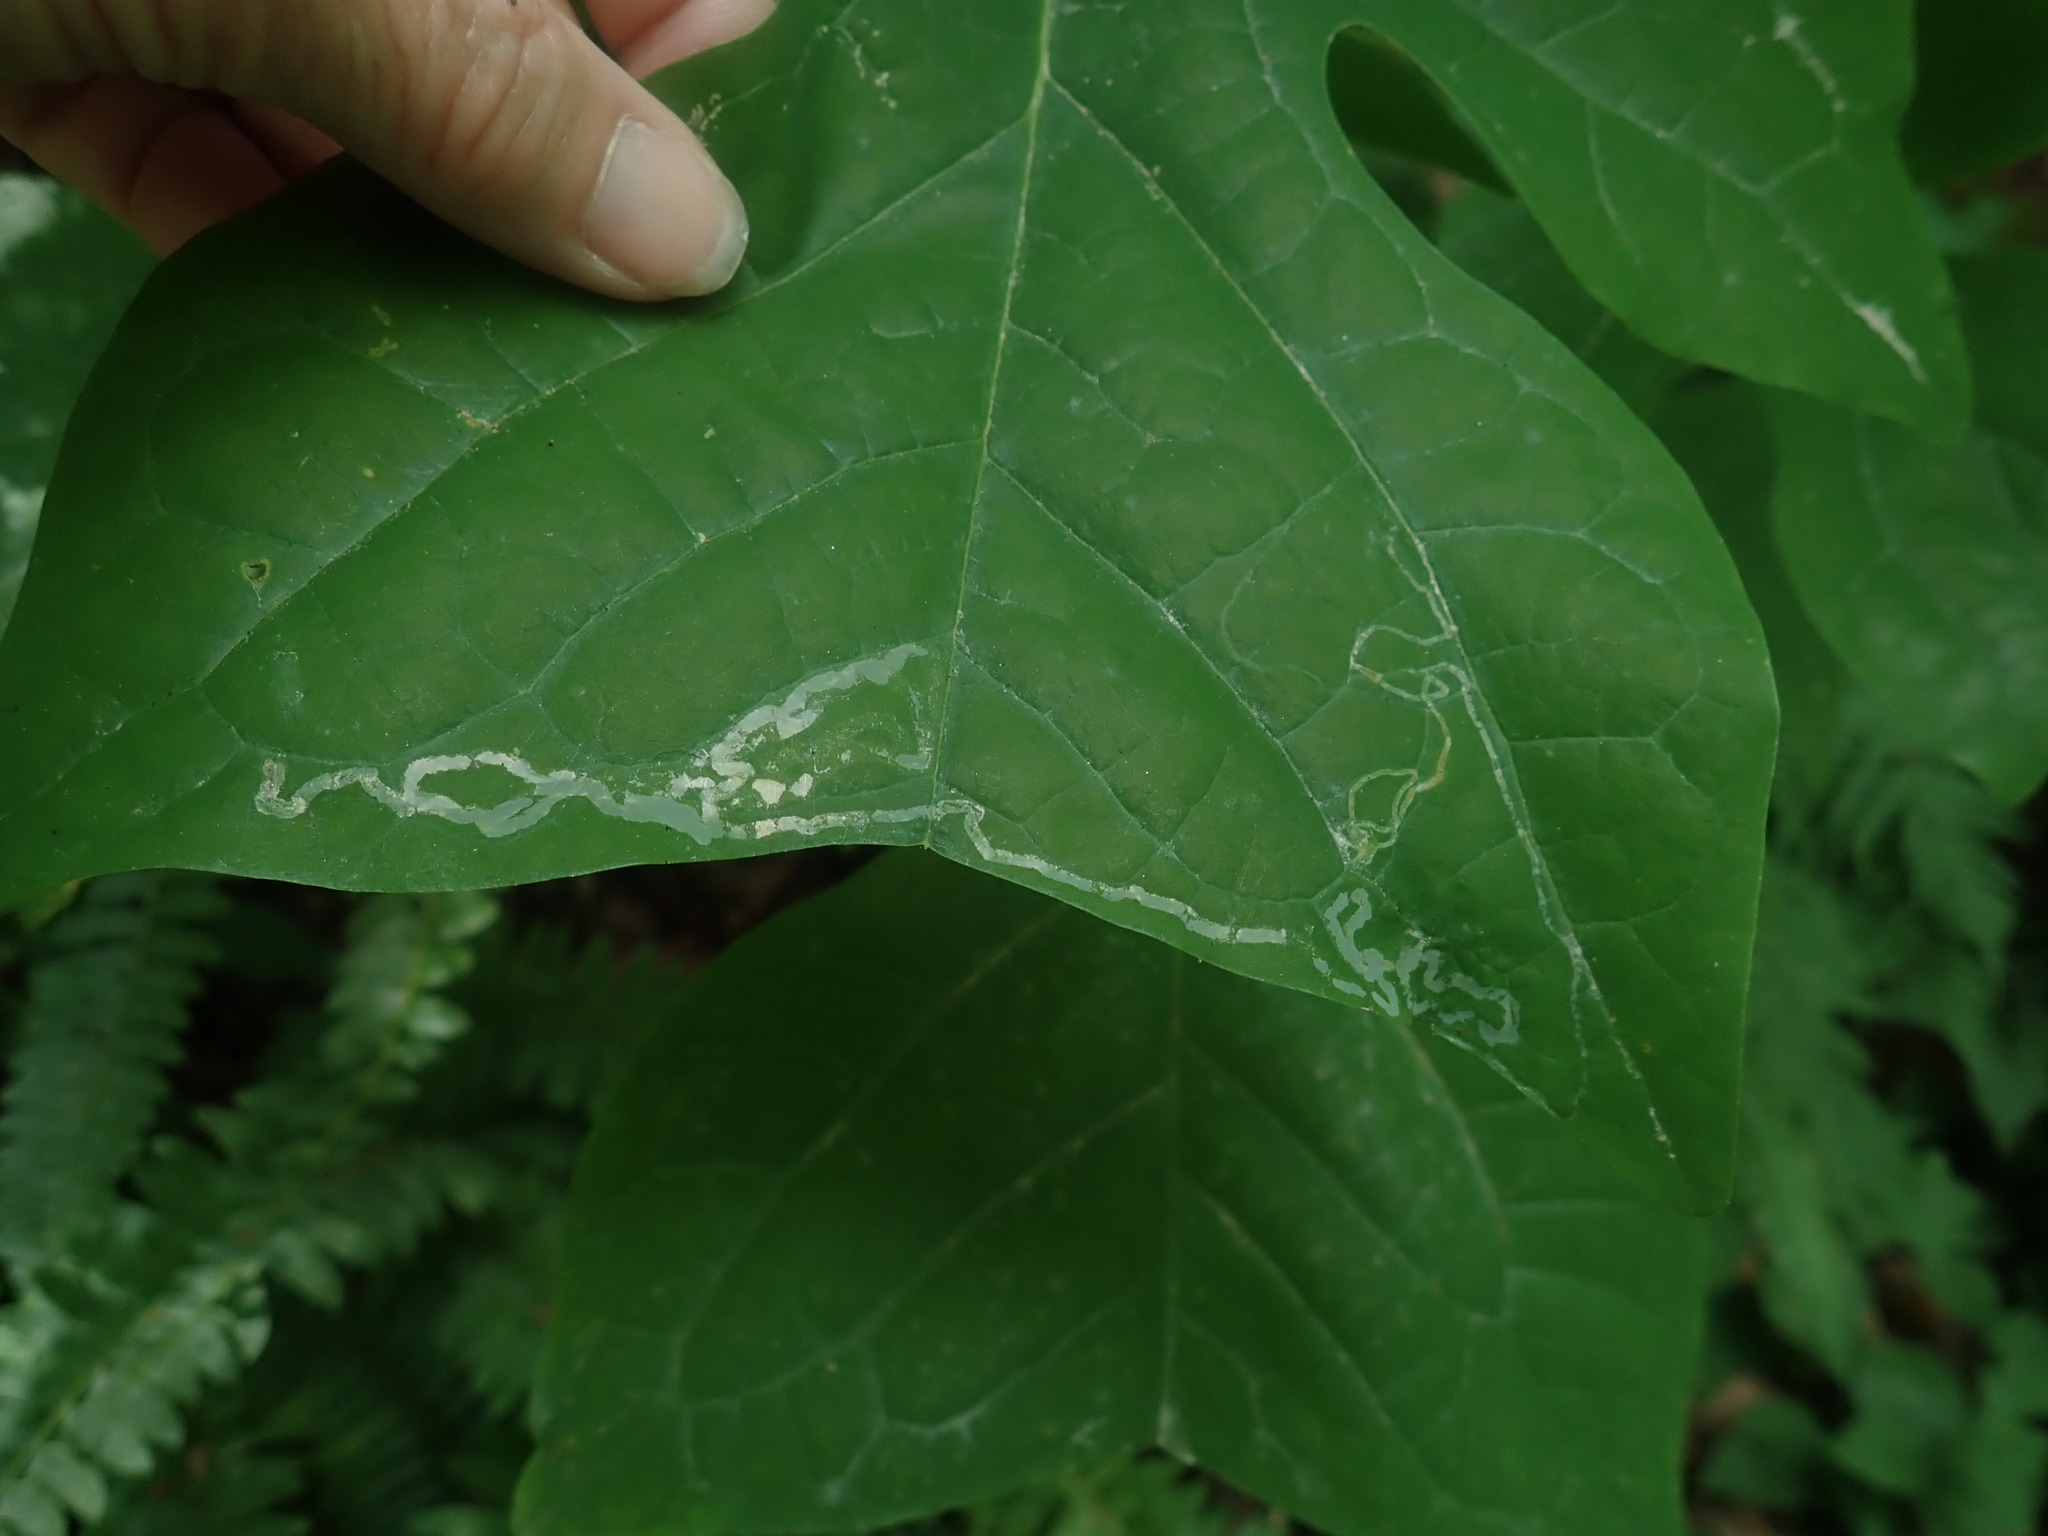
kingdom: Animalia
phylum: Arthropoda
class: Insecta
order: Lepidoptera
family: Gracillariidae
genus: Phyllocnistis
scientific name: Phyllocnistis liriodendronella
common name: Tulip tree leaf miner
